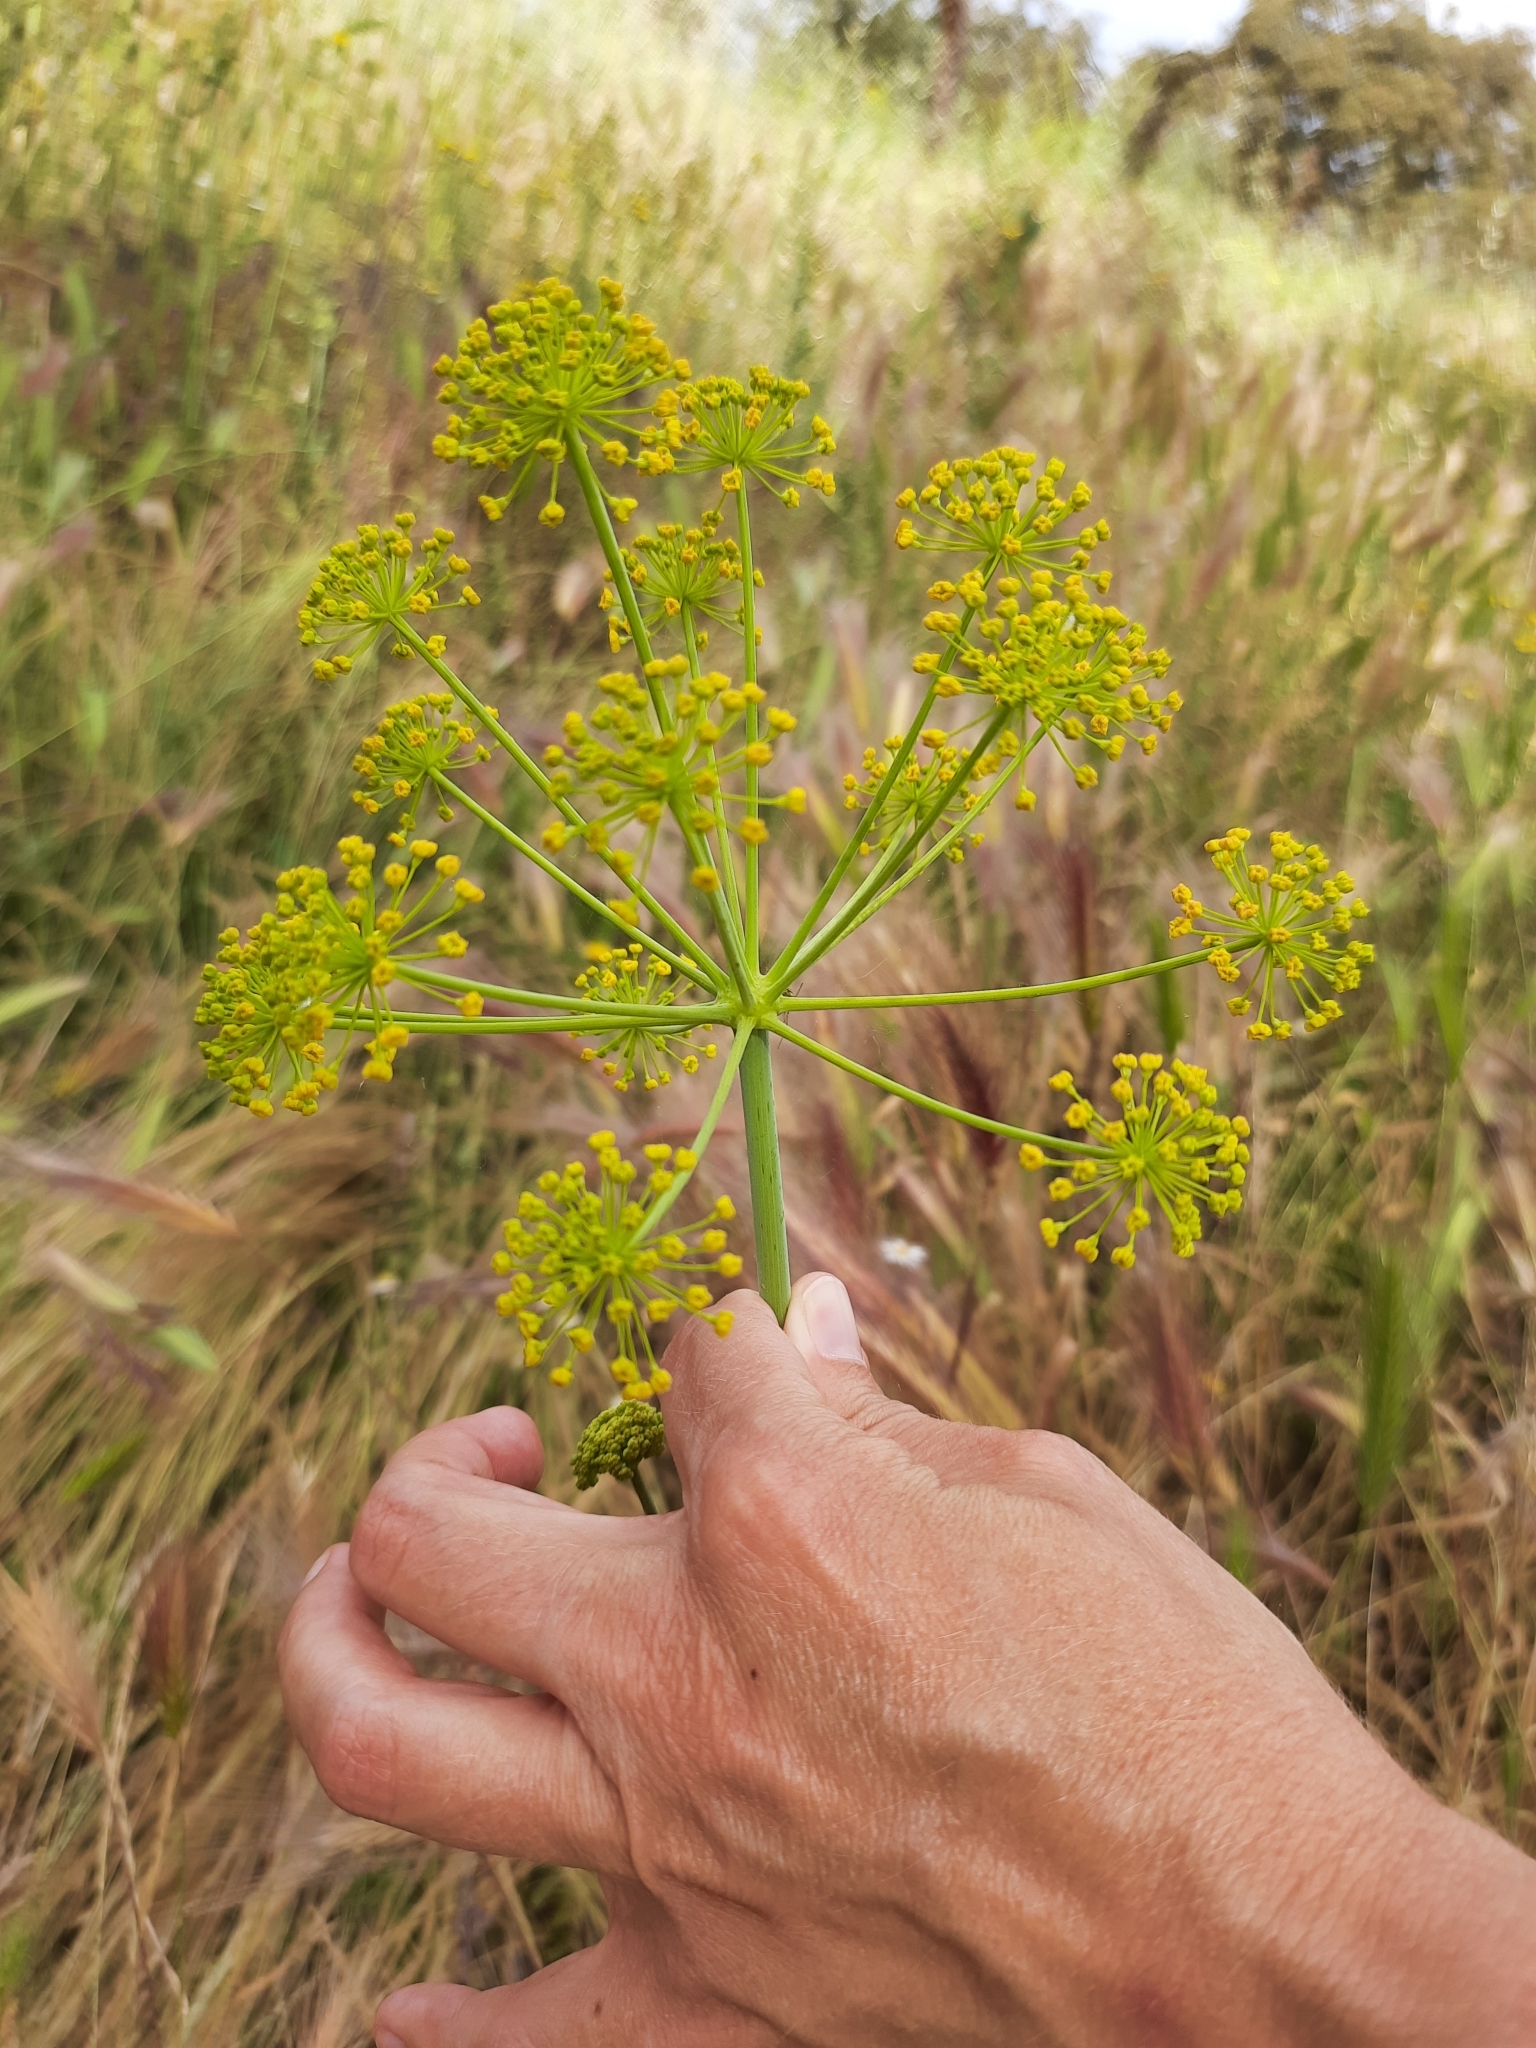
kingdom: Plantae
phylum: Tracheophyta
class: Magnoliopsida
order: Apiales
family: Apiaceae
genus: Thapsia
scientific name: Thapsia villosa
